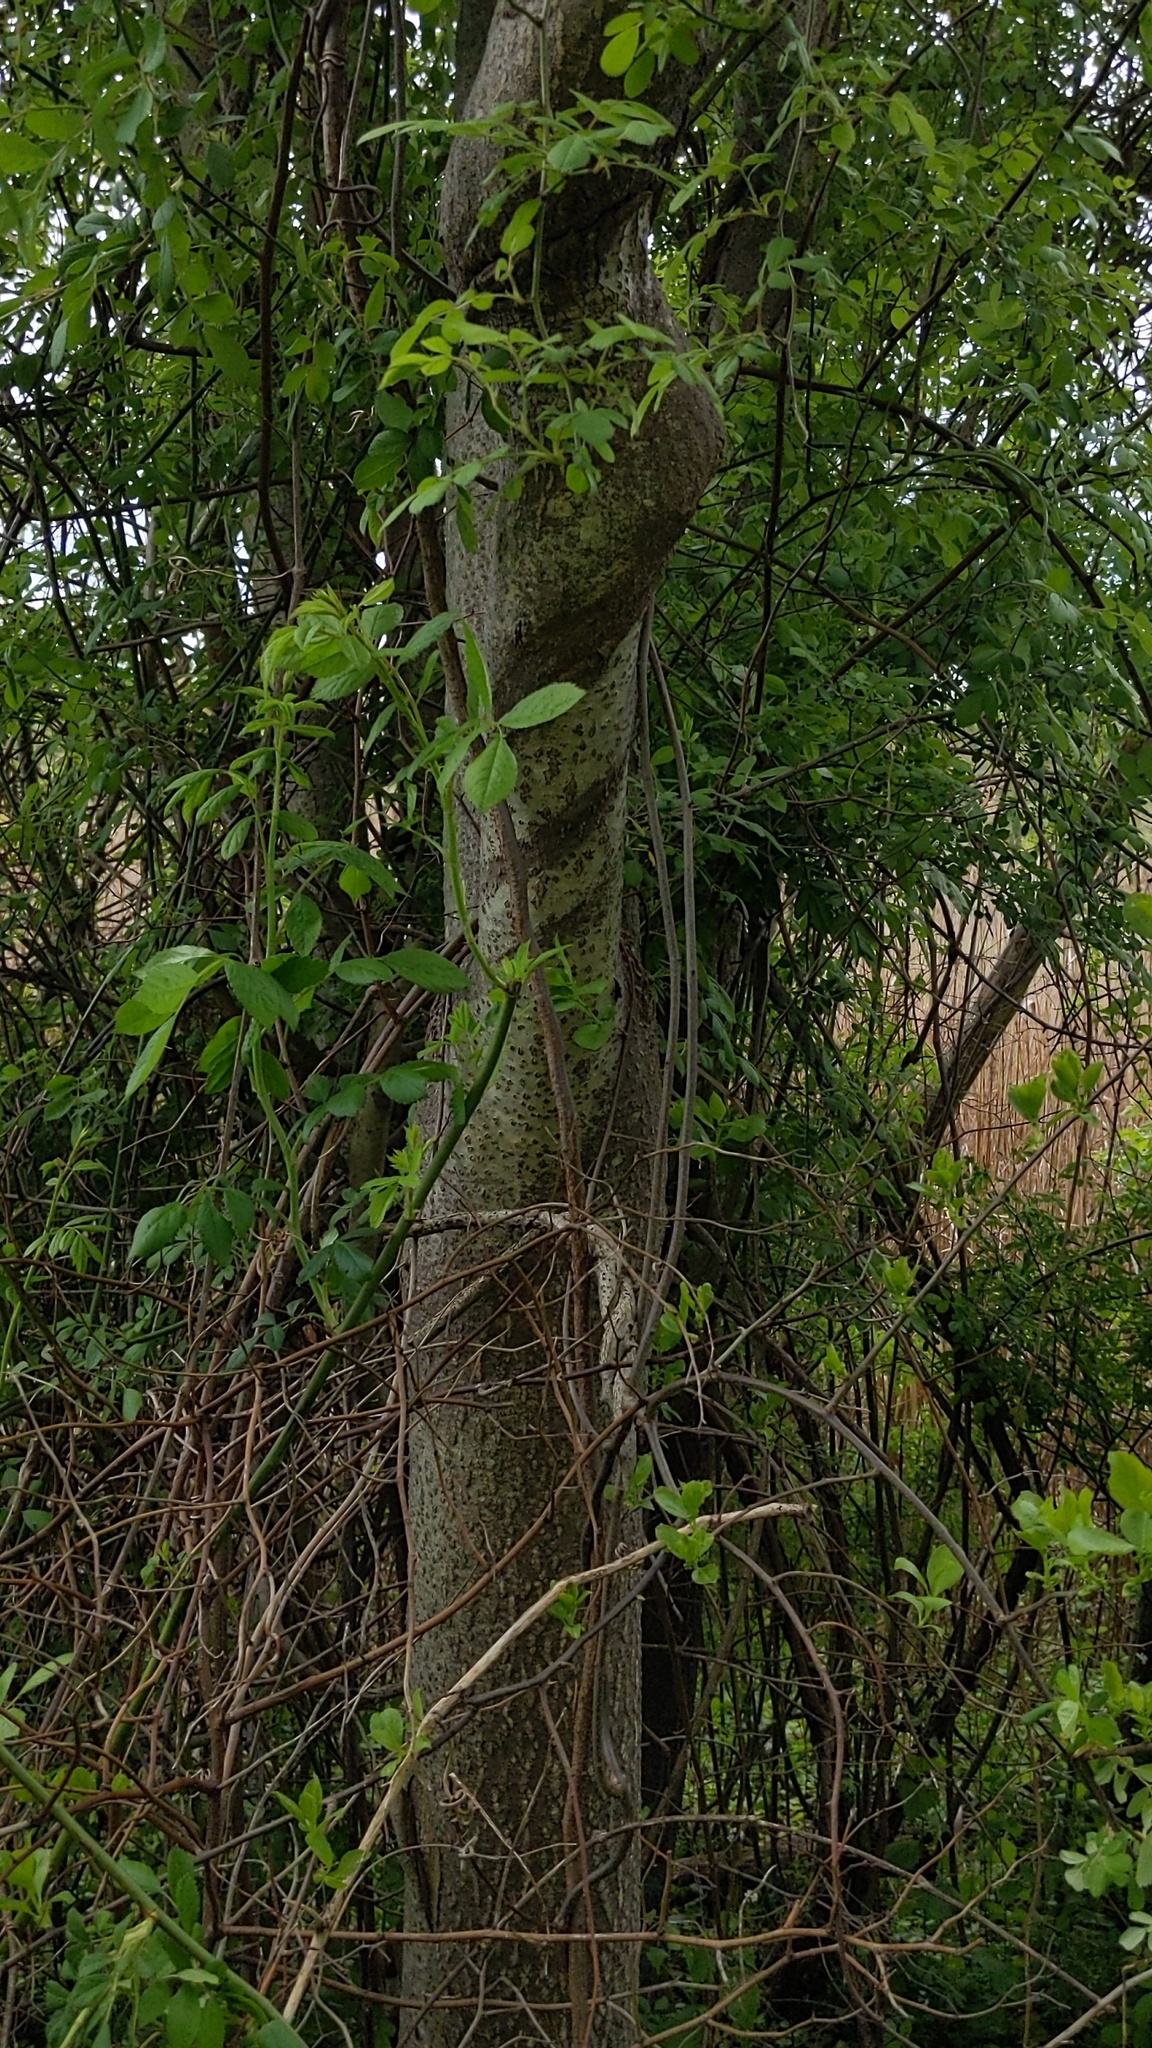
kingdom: Plantae
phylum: Tracheophyta
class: Magnoliopsida
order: Sapindales
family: Simaroubaceae
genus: Ailanthus
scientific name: Ailanthus altissima
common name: Tree-of-heaven
